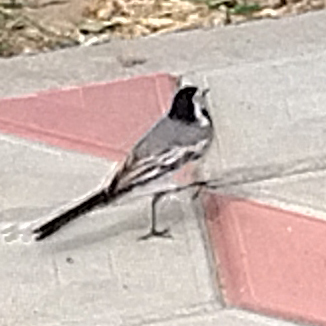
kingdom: Animalia
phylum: Chordata
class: Aves
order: Passeriformes
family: Motacillidae
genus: Motacilla
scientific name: Motacilla alba
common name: White wagtail
